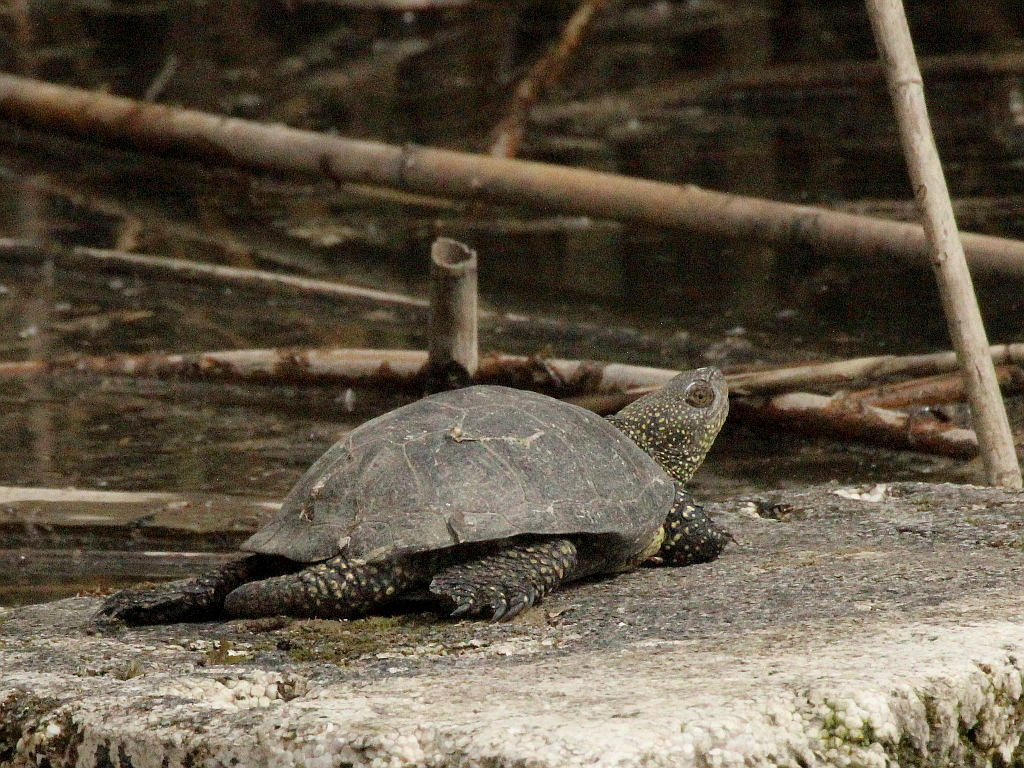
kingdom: Animalia
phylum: Chordata
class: Testudines
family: Emydidae
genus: Emys
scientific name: Emys orbicularis
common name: European pond turtle
